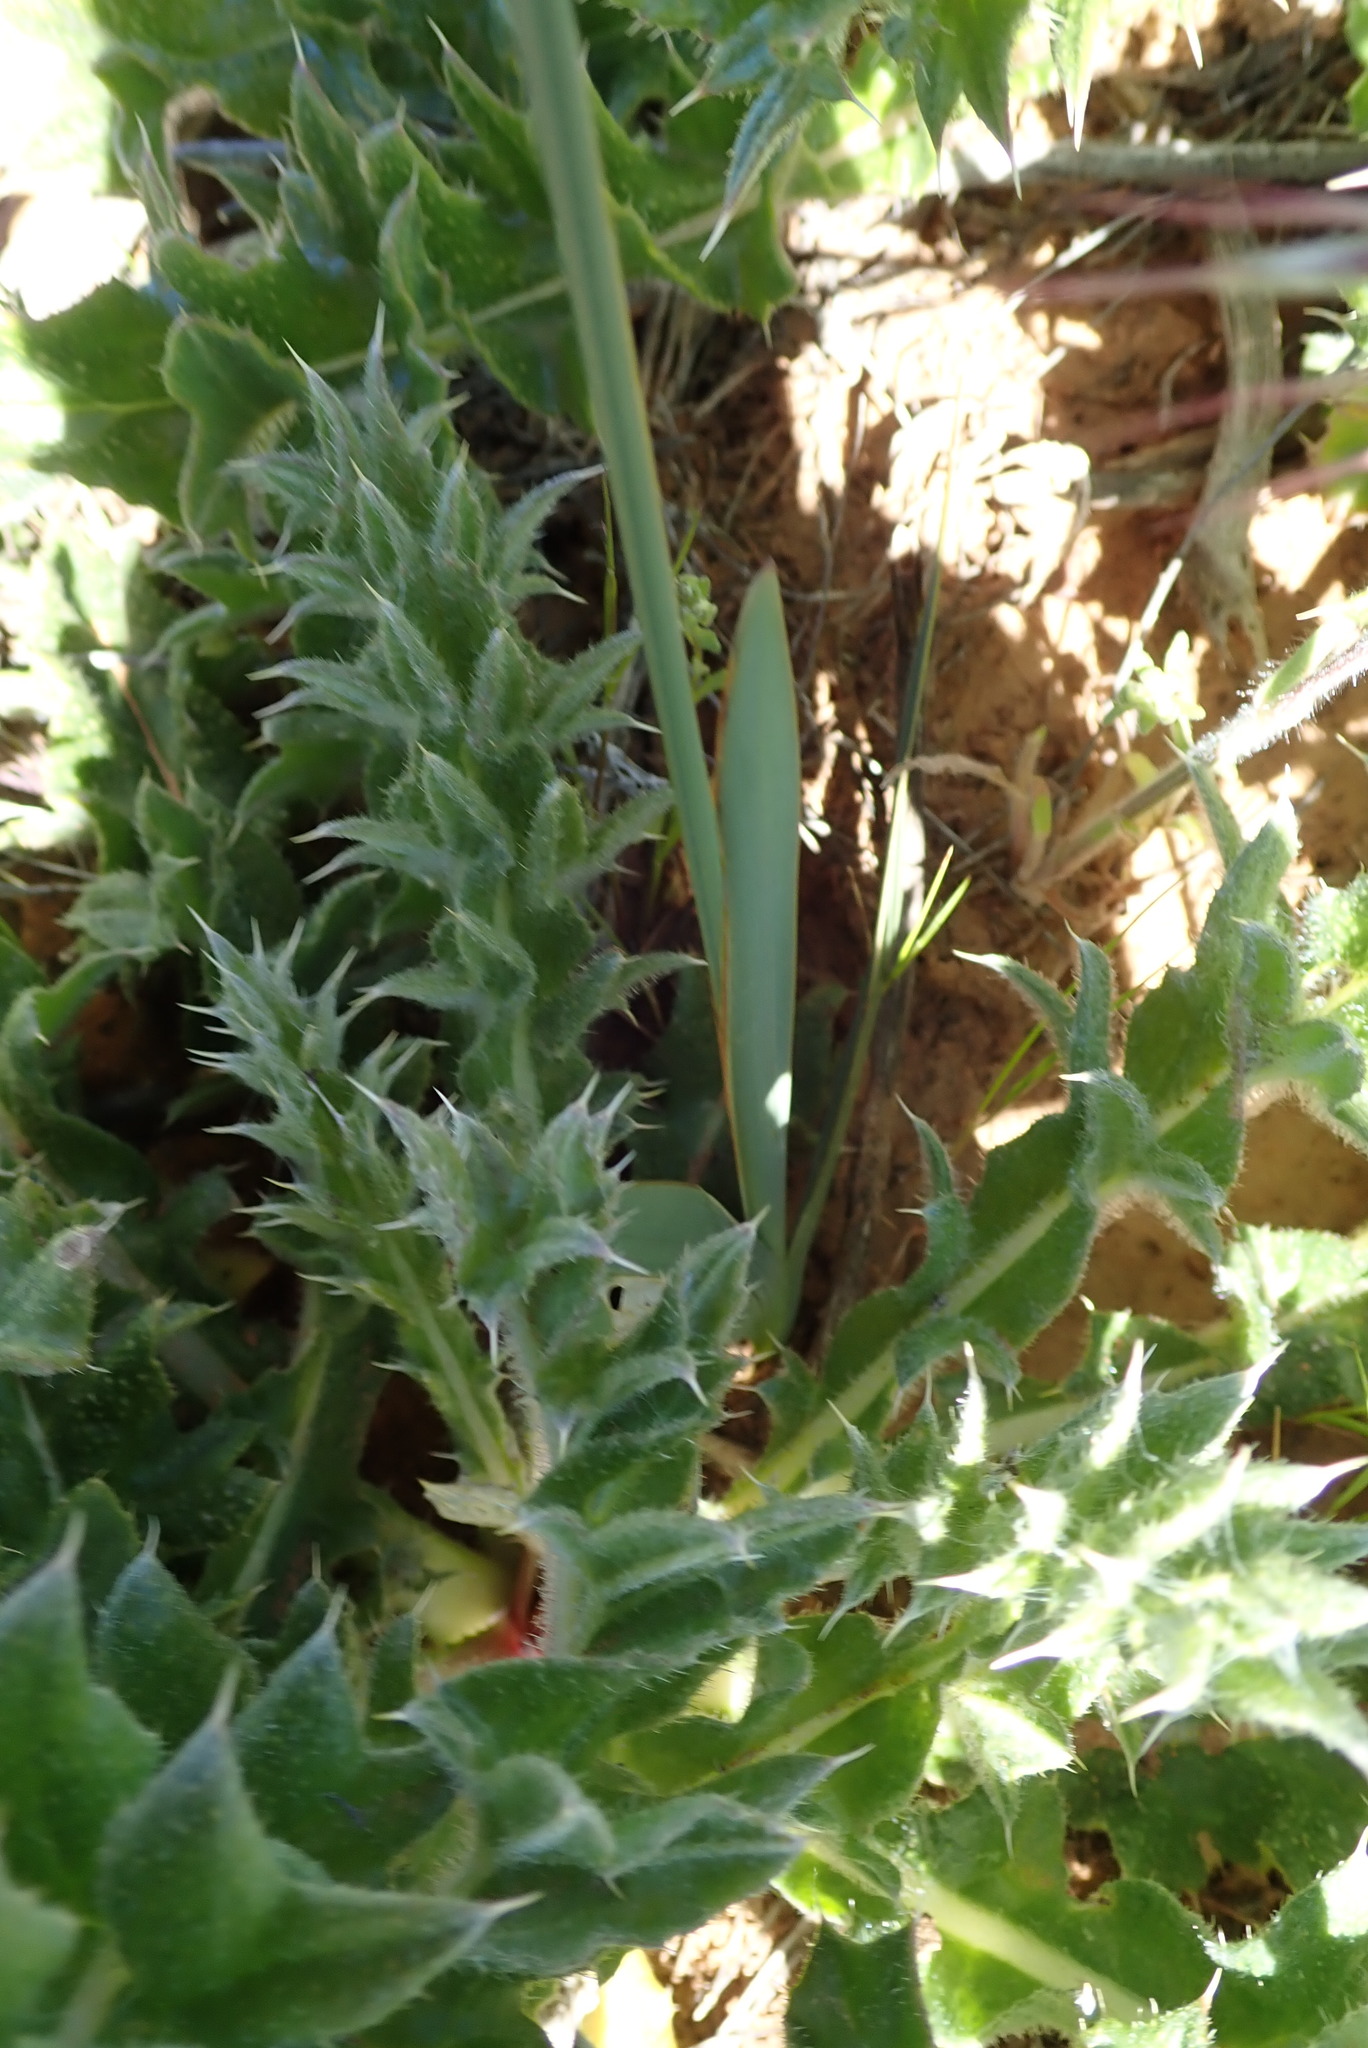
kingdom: Plantae
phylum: Tracheophyta
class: Liliopsida
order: Asparagales
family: Iridaceae
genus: Ixia
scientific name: Ixia marginifolia
